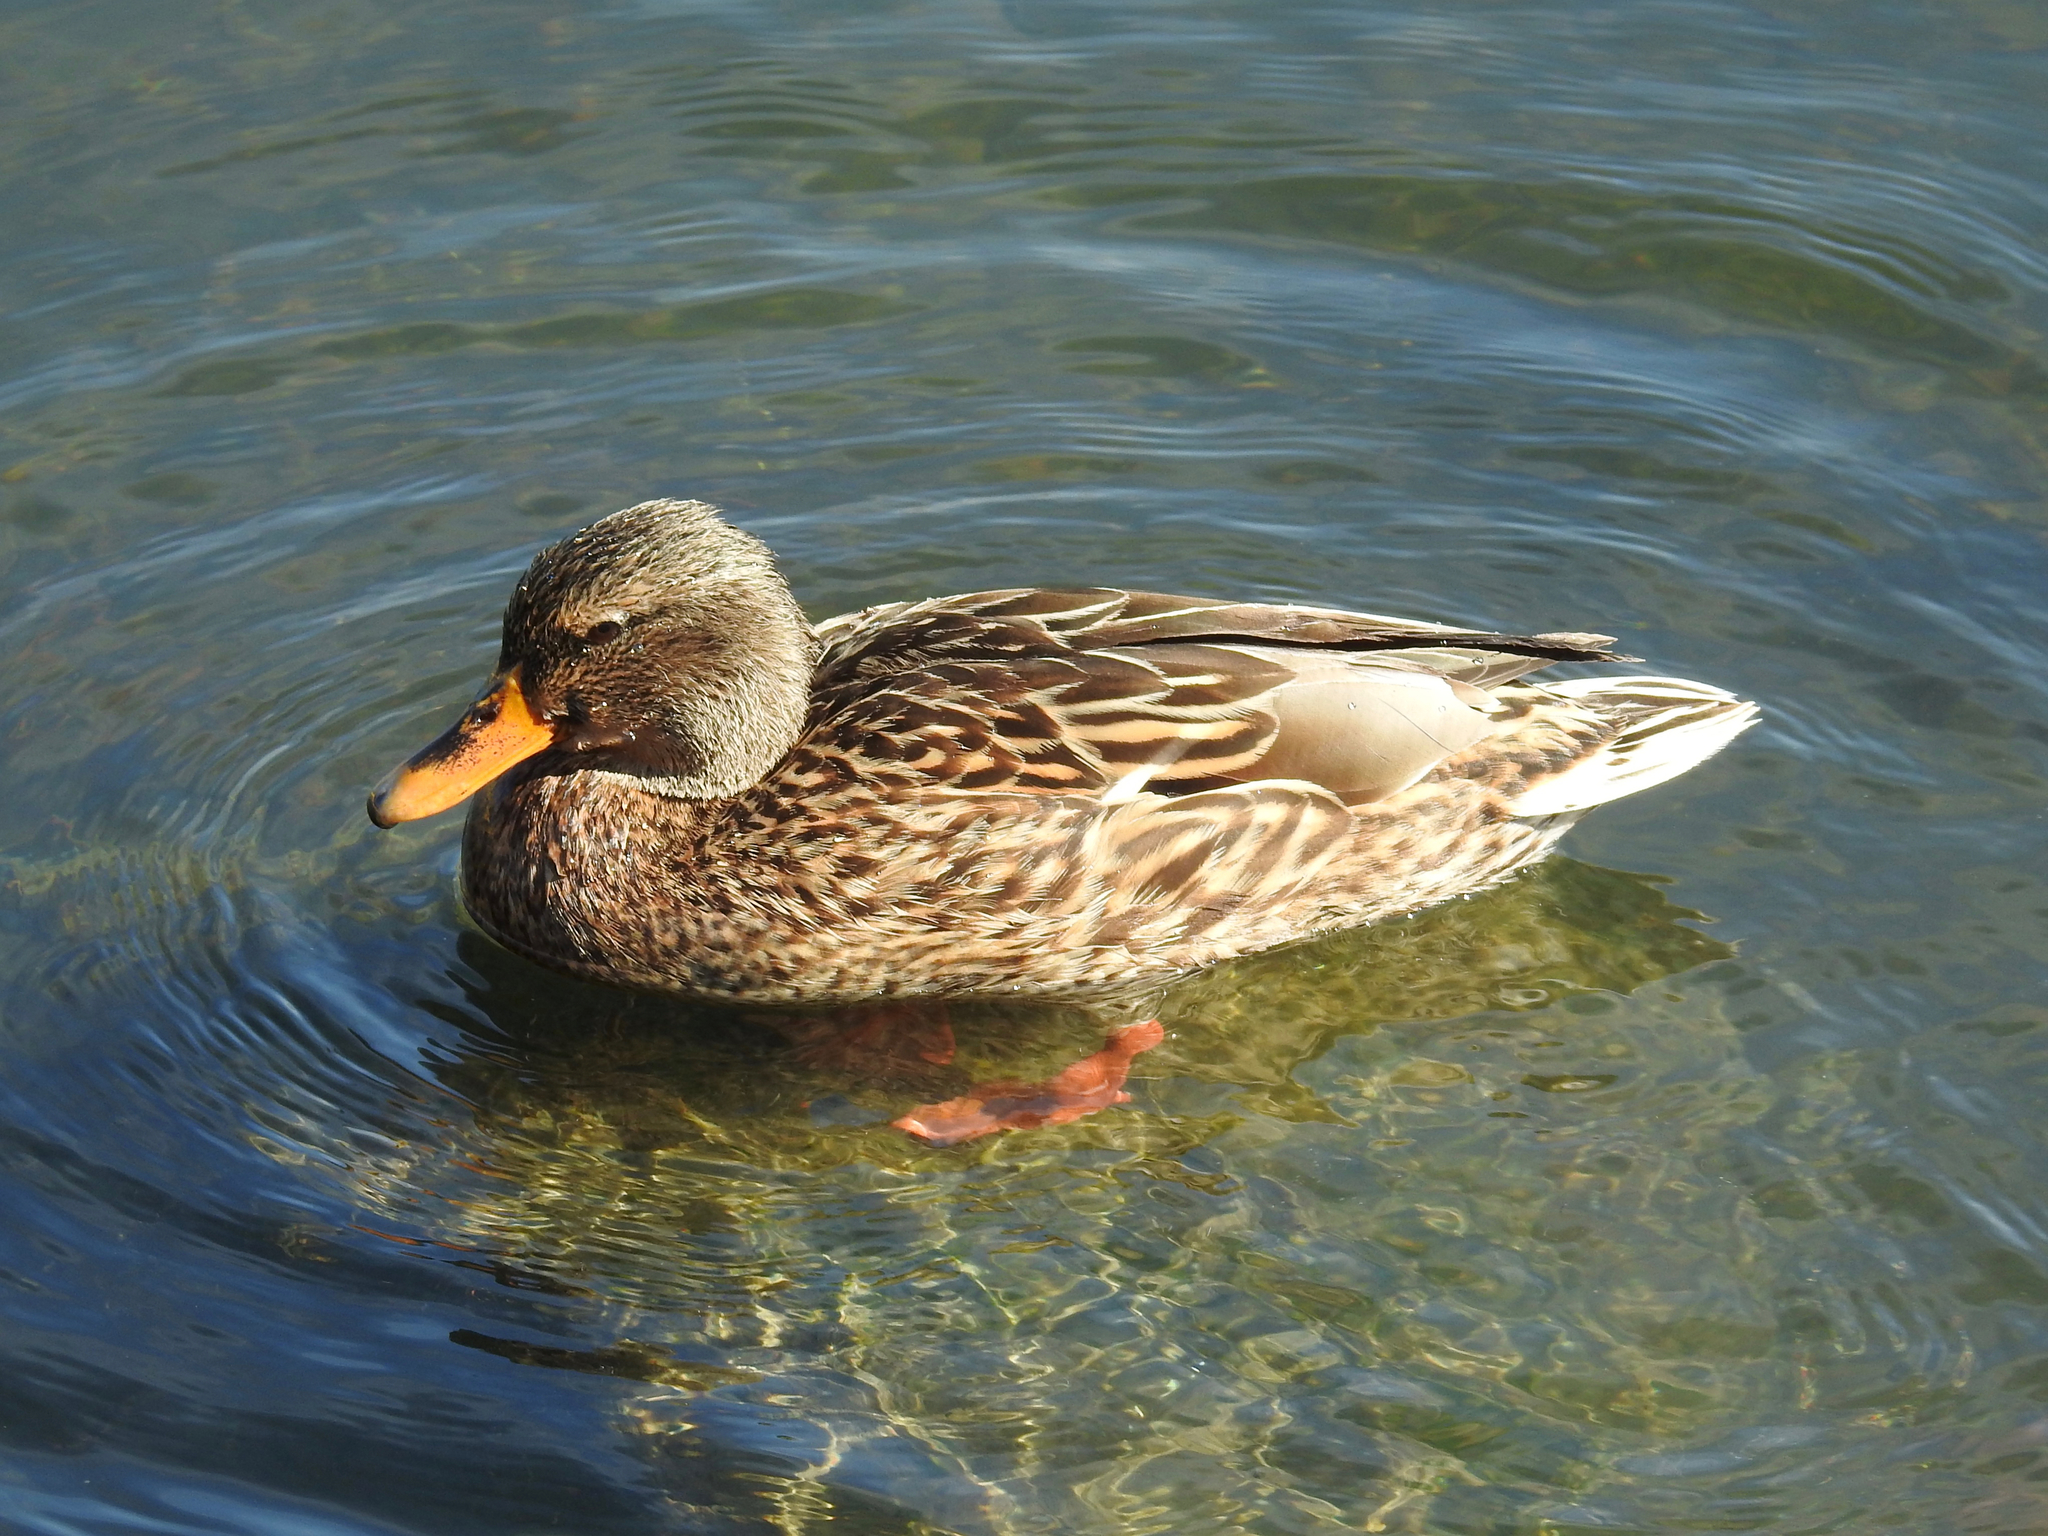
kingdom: Animalia
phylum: Chordata
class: Aves
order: Anseriformes
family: Anatidae
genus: Anas
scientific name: Anas platyrhynchos
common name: Mallard
